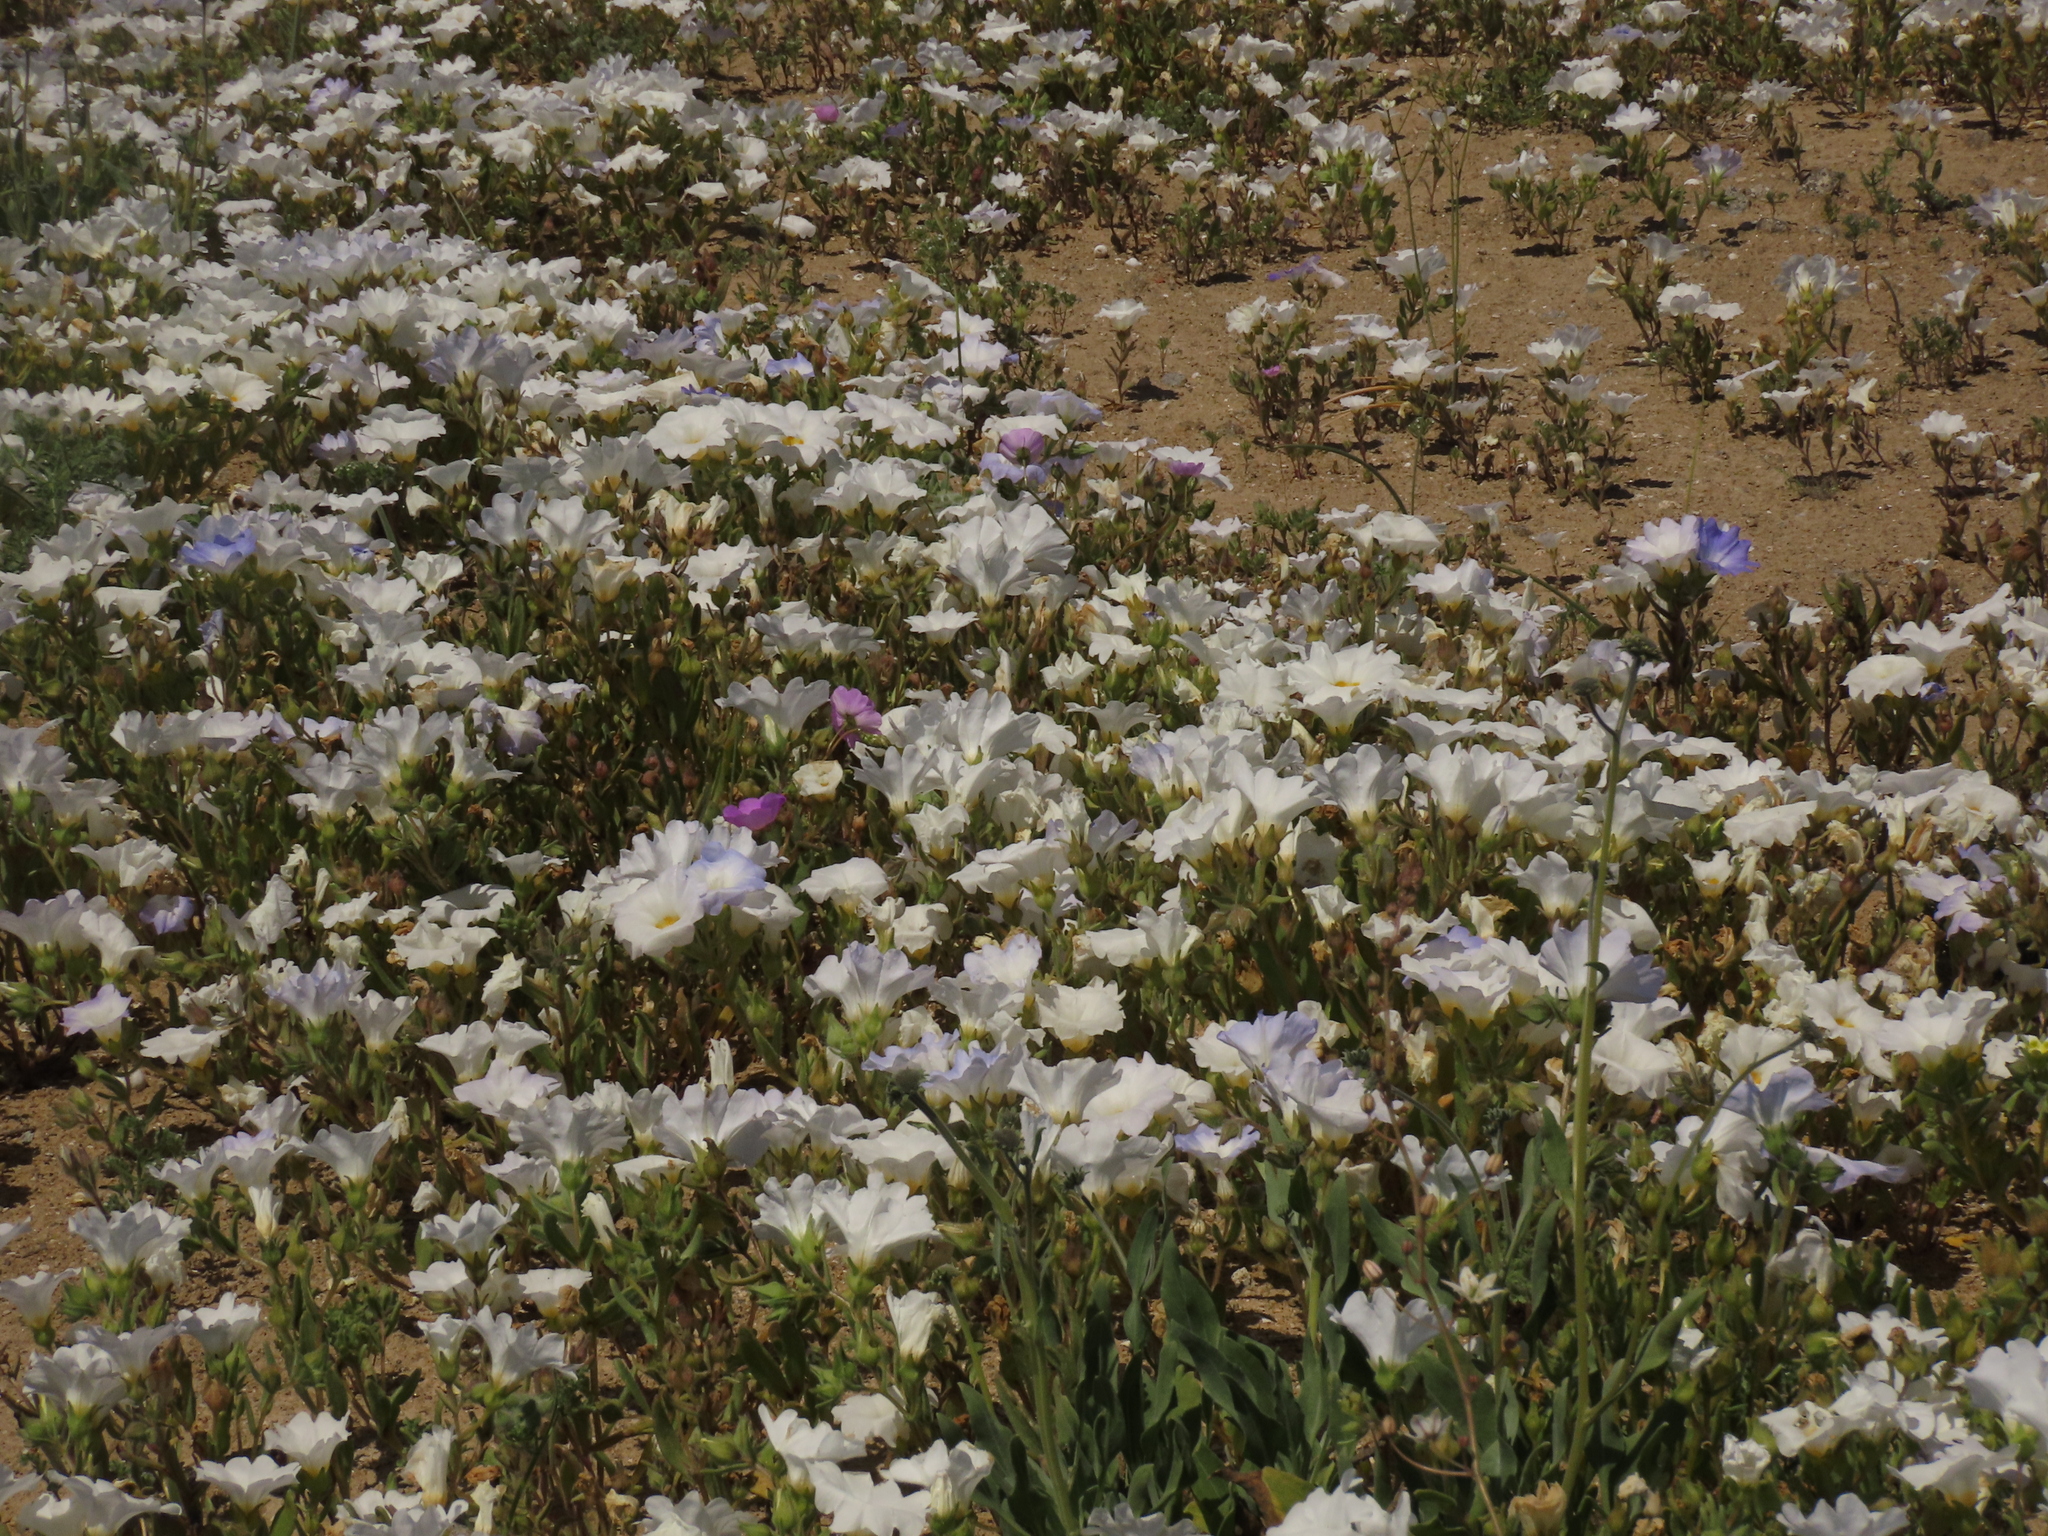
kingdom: Plantae
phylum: Tracheophyta
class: Magnoliopsida
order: Solanales
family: Solanaceae
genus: Nolana
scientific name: Nolana baccata
